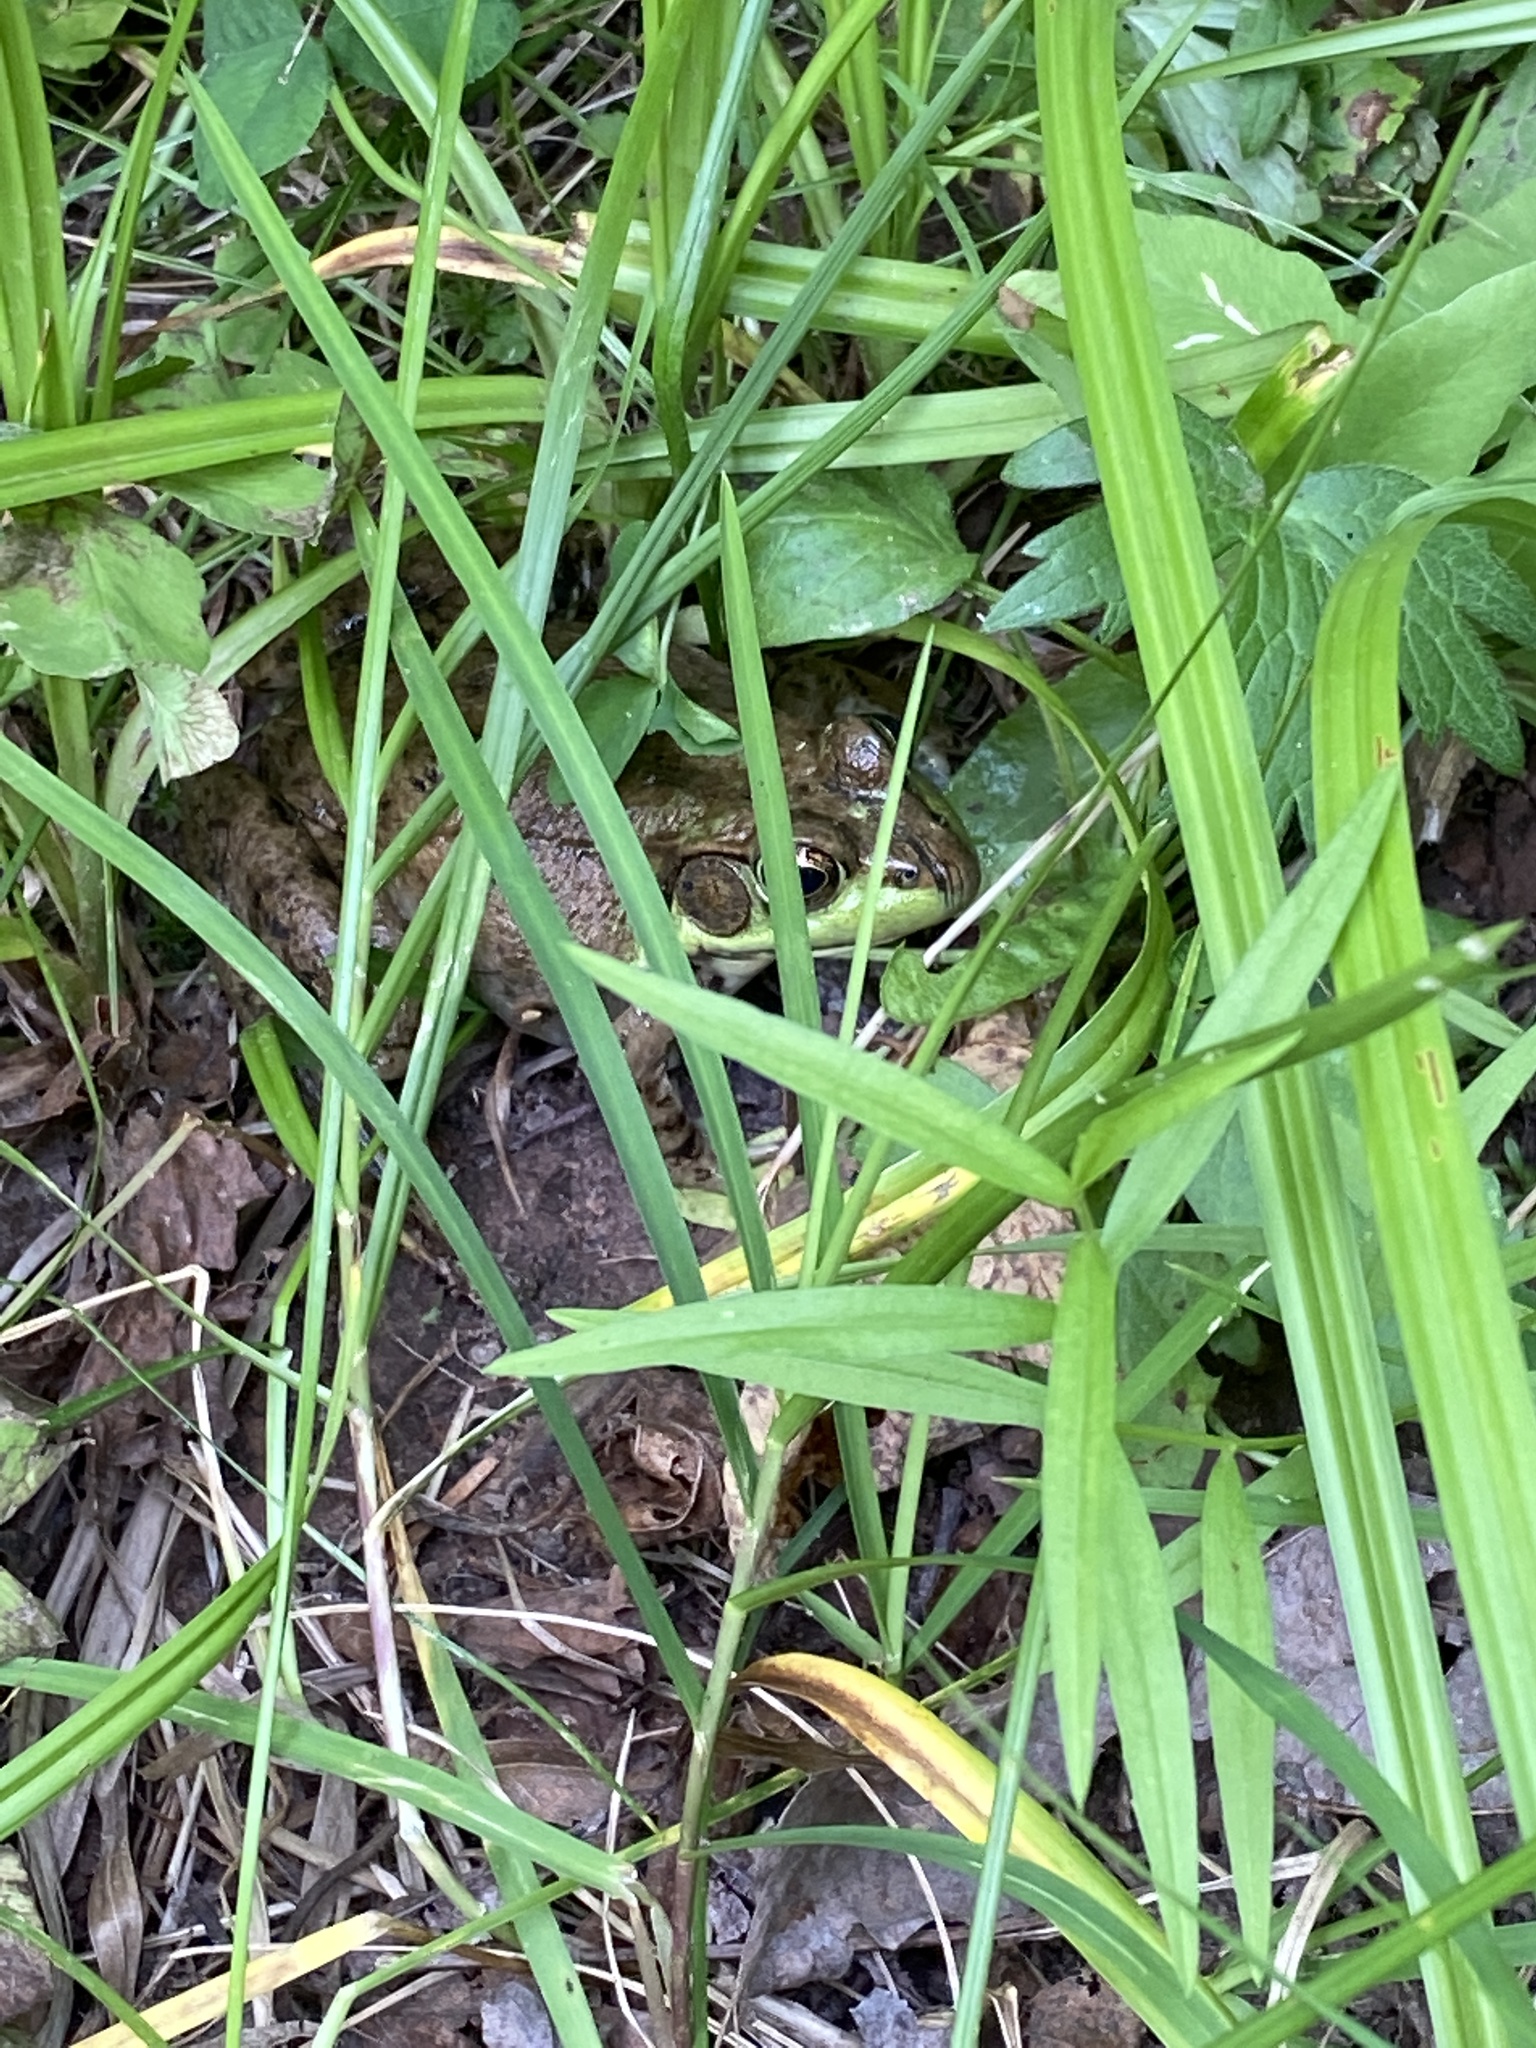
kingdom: Animalia
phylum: Chordata
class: Amphibia
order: Anura
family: Ranidae
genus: Lithobates
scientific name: Lithobates clamitans
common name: Green frog
